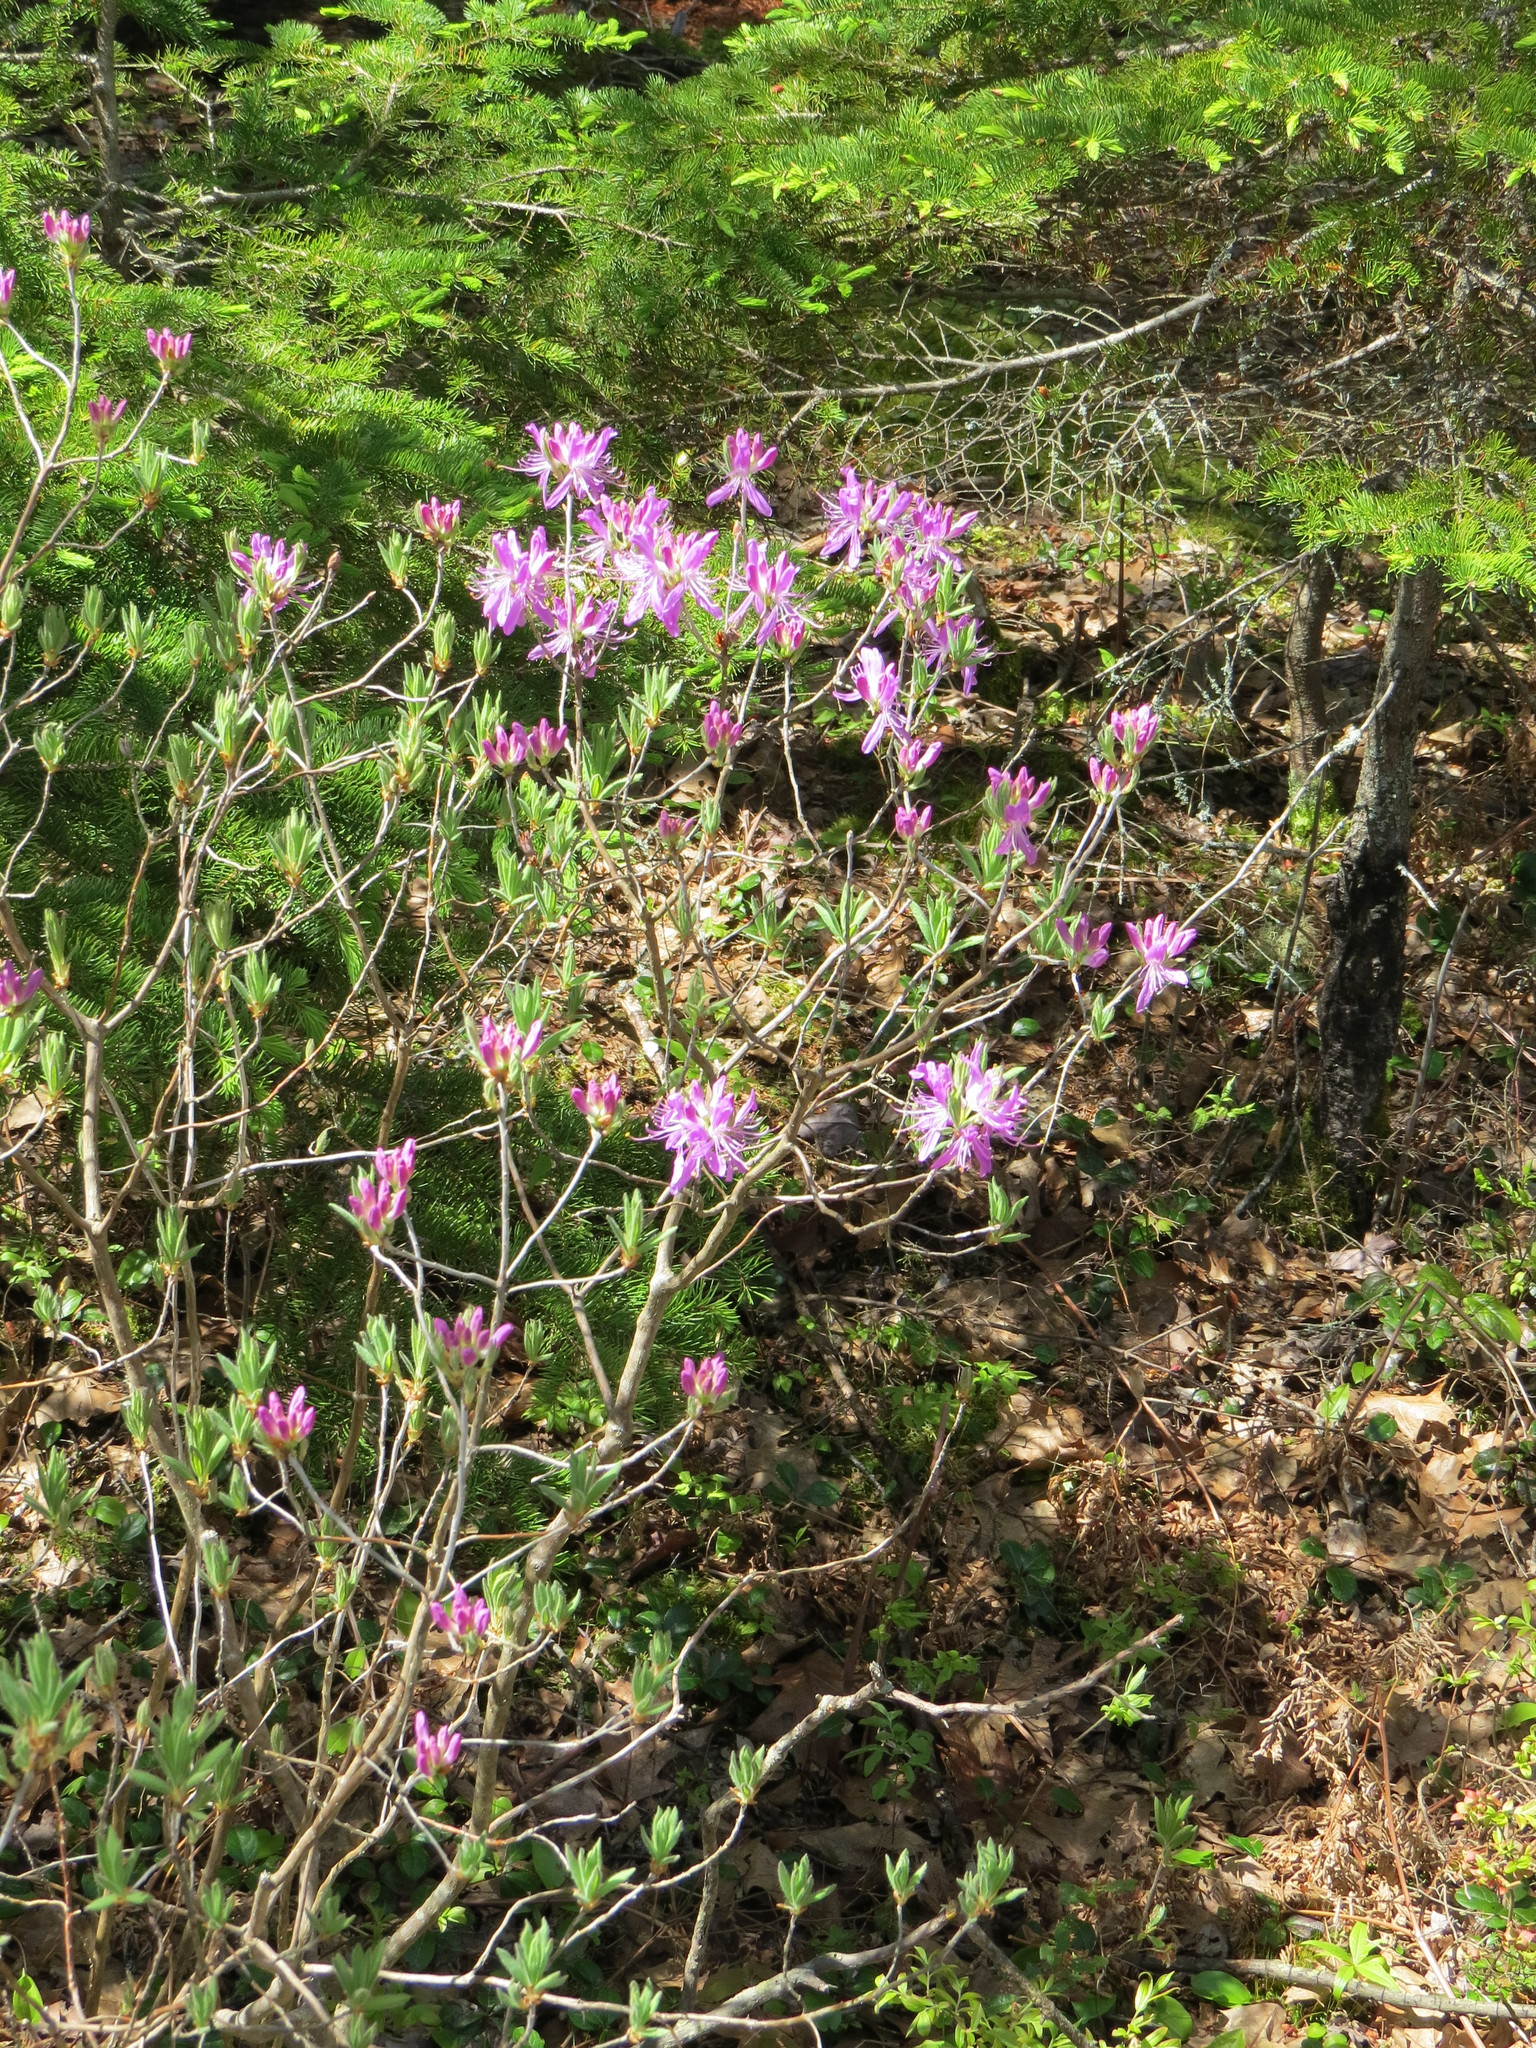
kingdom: Plantae
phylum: Tracheophyta
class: Magnoliopsida
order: Ericales
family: Ericaceae
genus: Rhododendron
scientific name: Rhododendron canadense
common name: Rhodora
